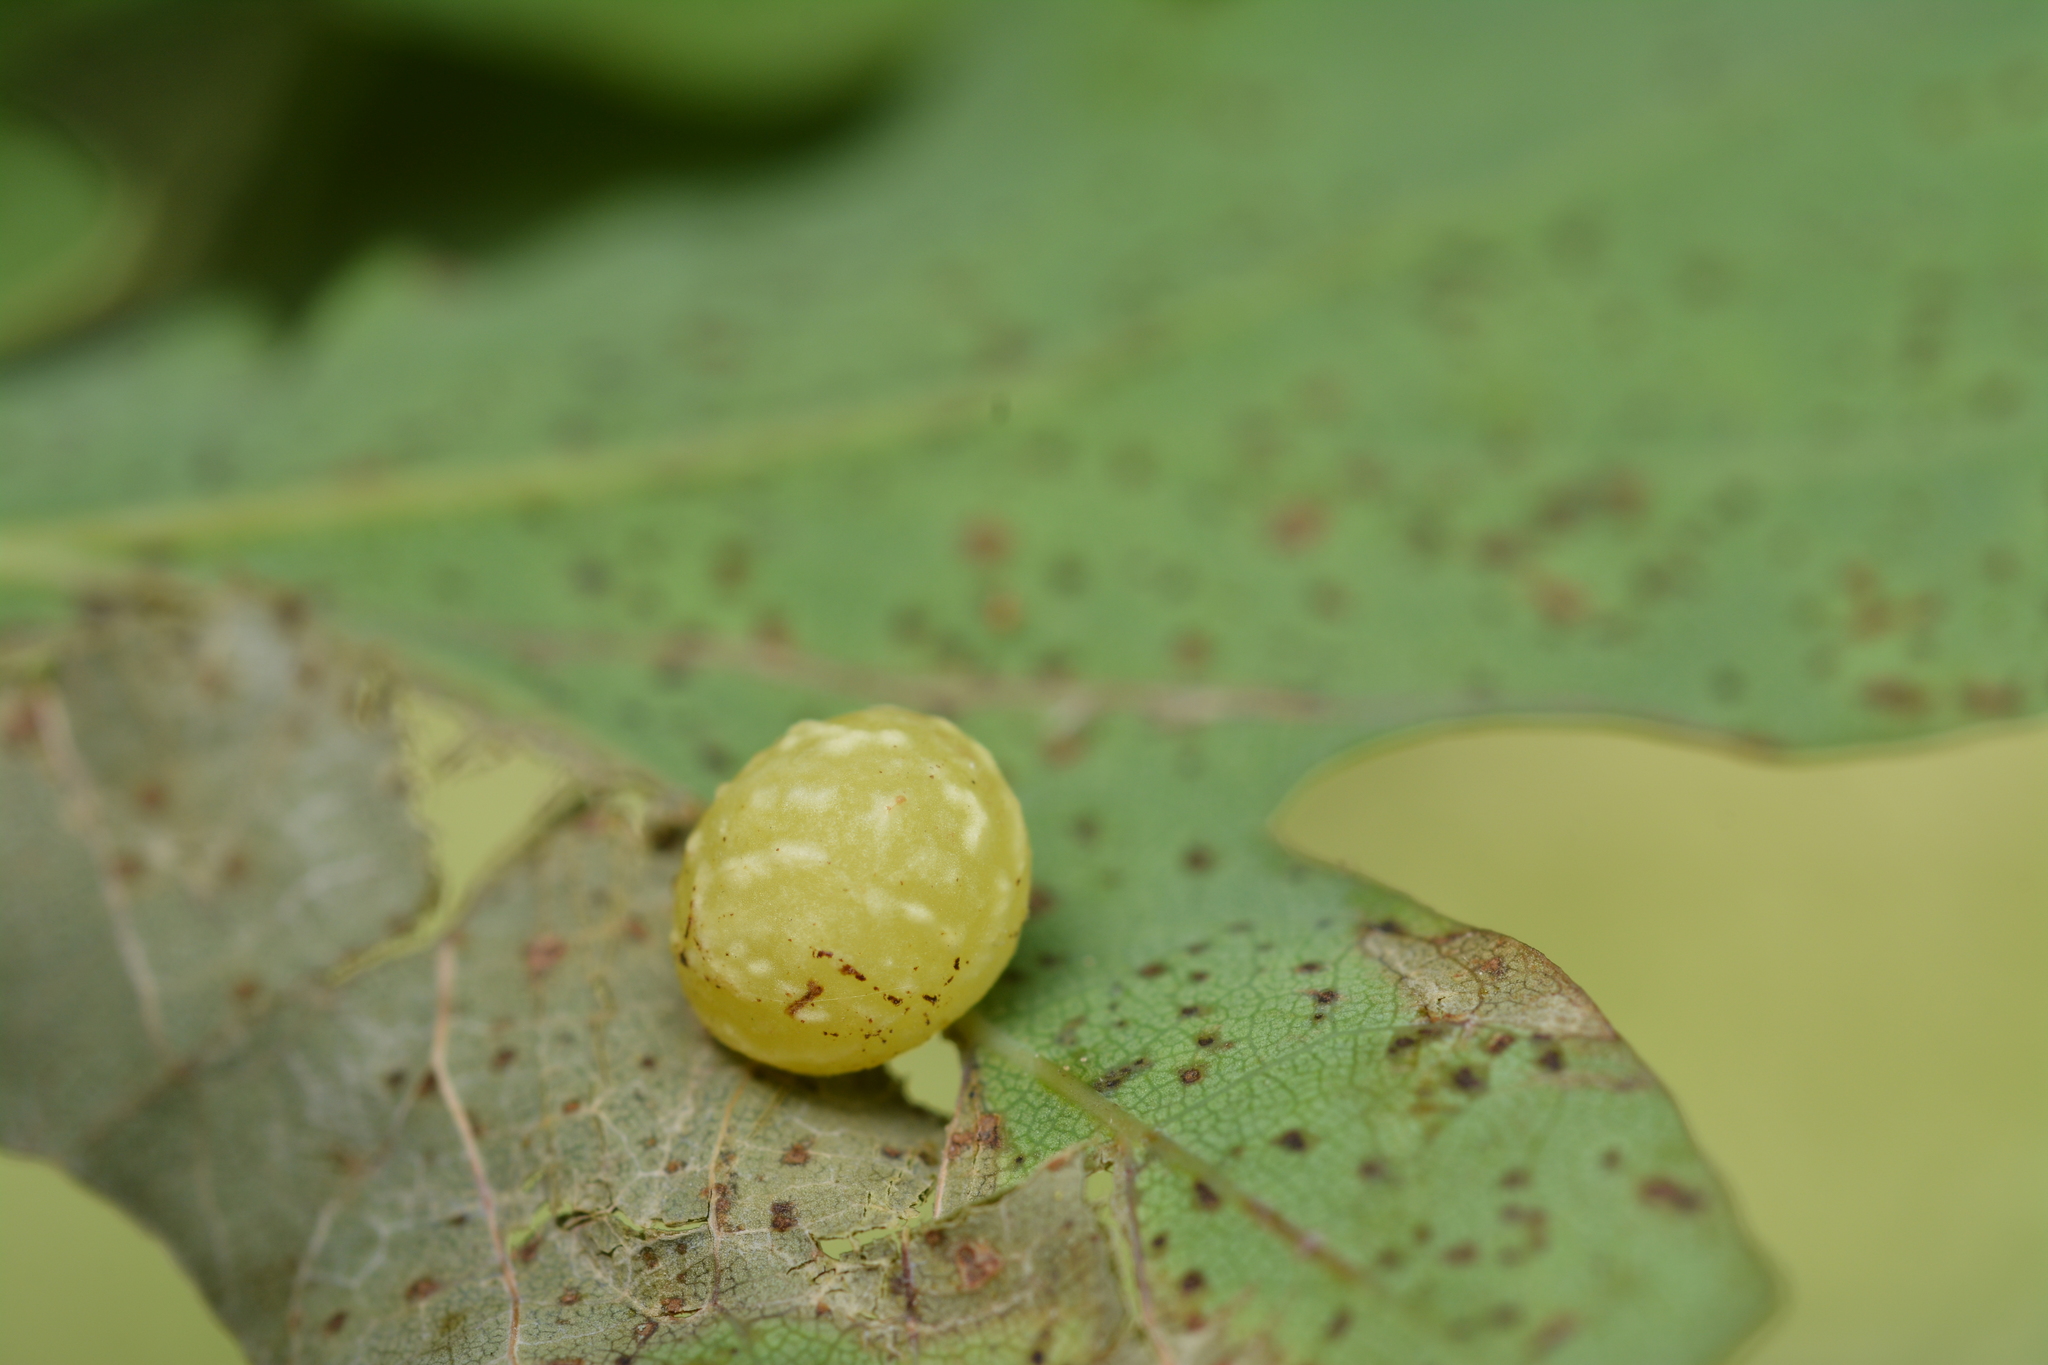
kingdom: Animalia
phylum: Arthropoda
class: Insecta
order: Hymenoptera
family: Cynipidae
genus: Cynips
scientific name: Cynips longiventris
